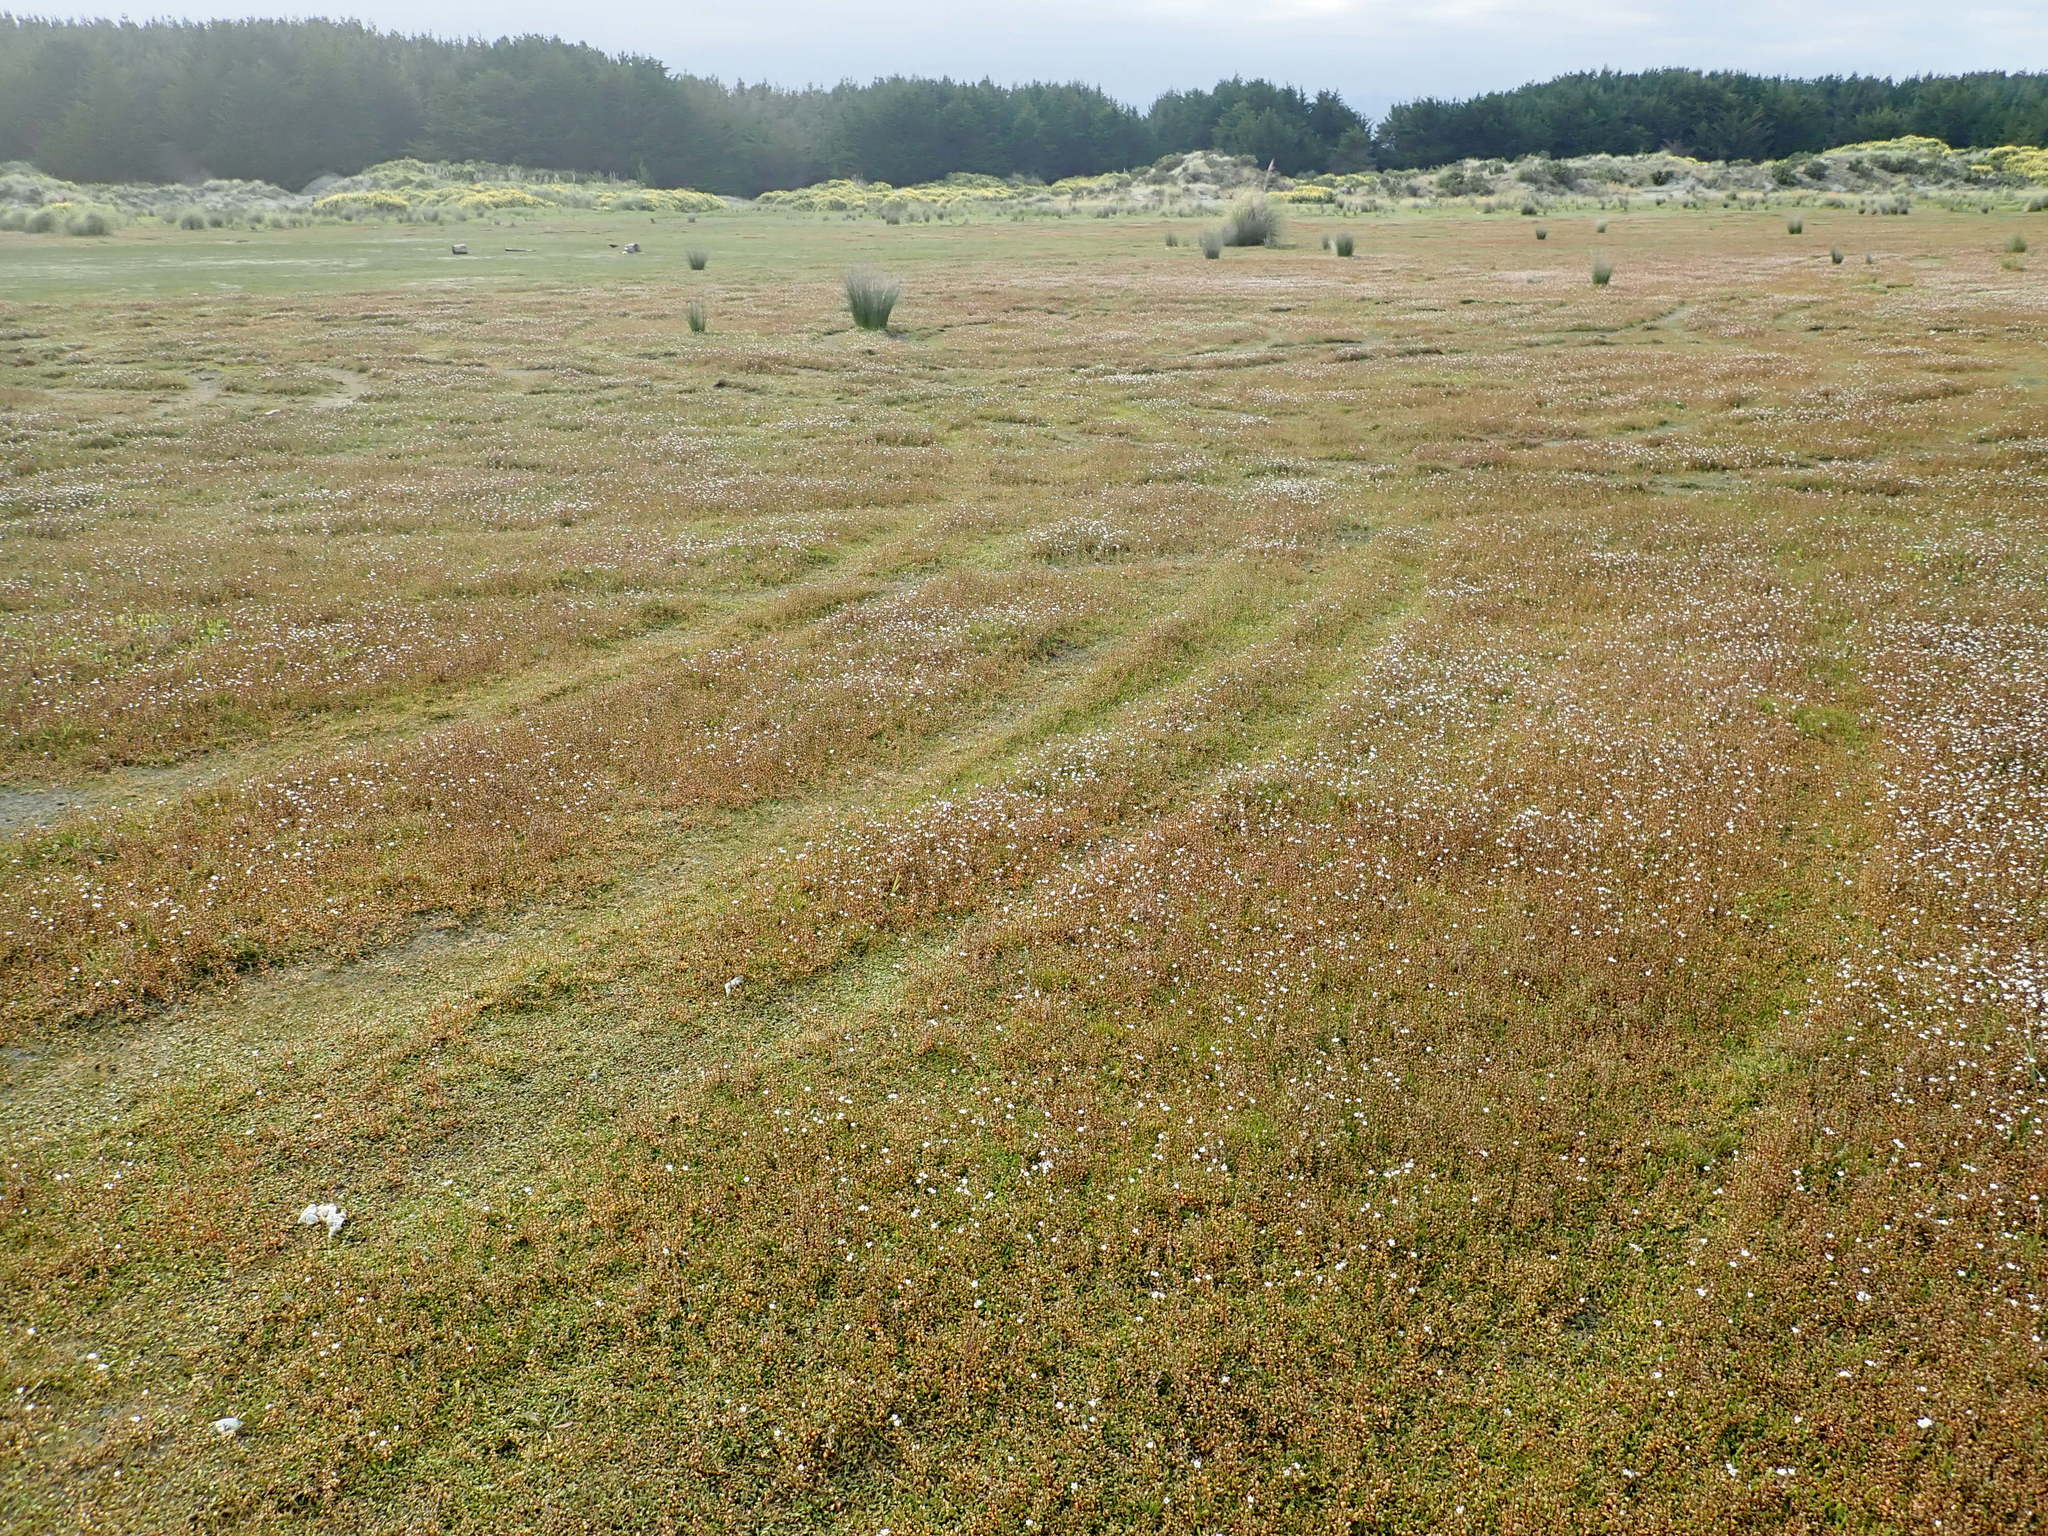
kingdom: Plantae
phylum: Tracheophyta
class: Magnoliopsida
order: Apiales
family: Apiaceae
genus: Lilaeopsis
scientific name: Lilaeopsis novae-zelandiae
